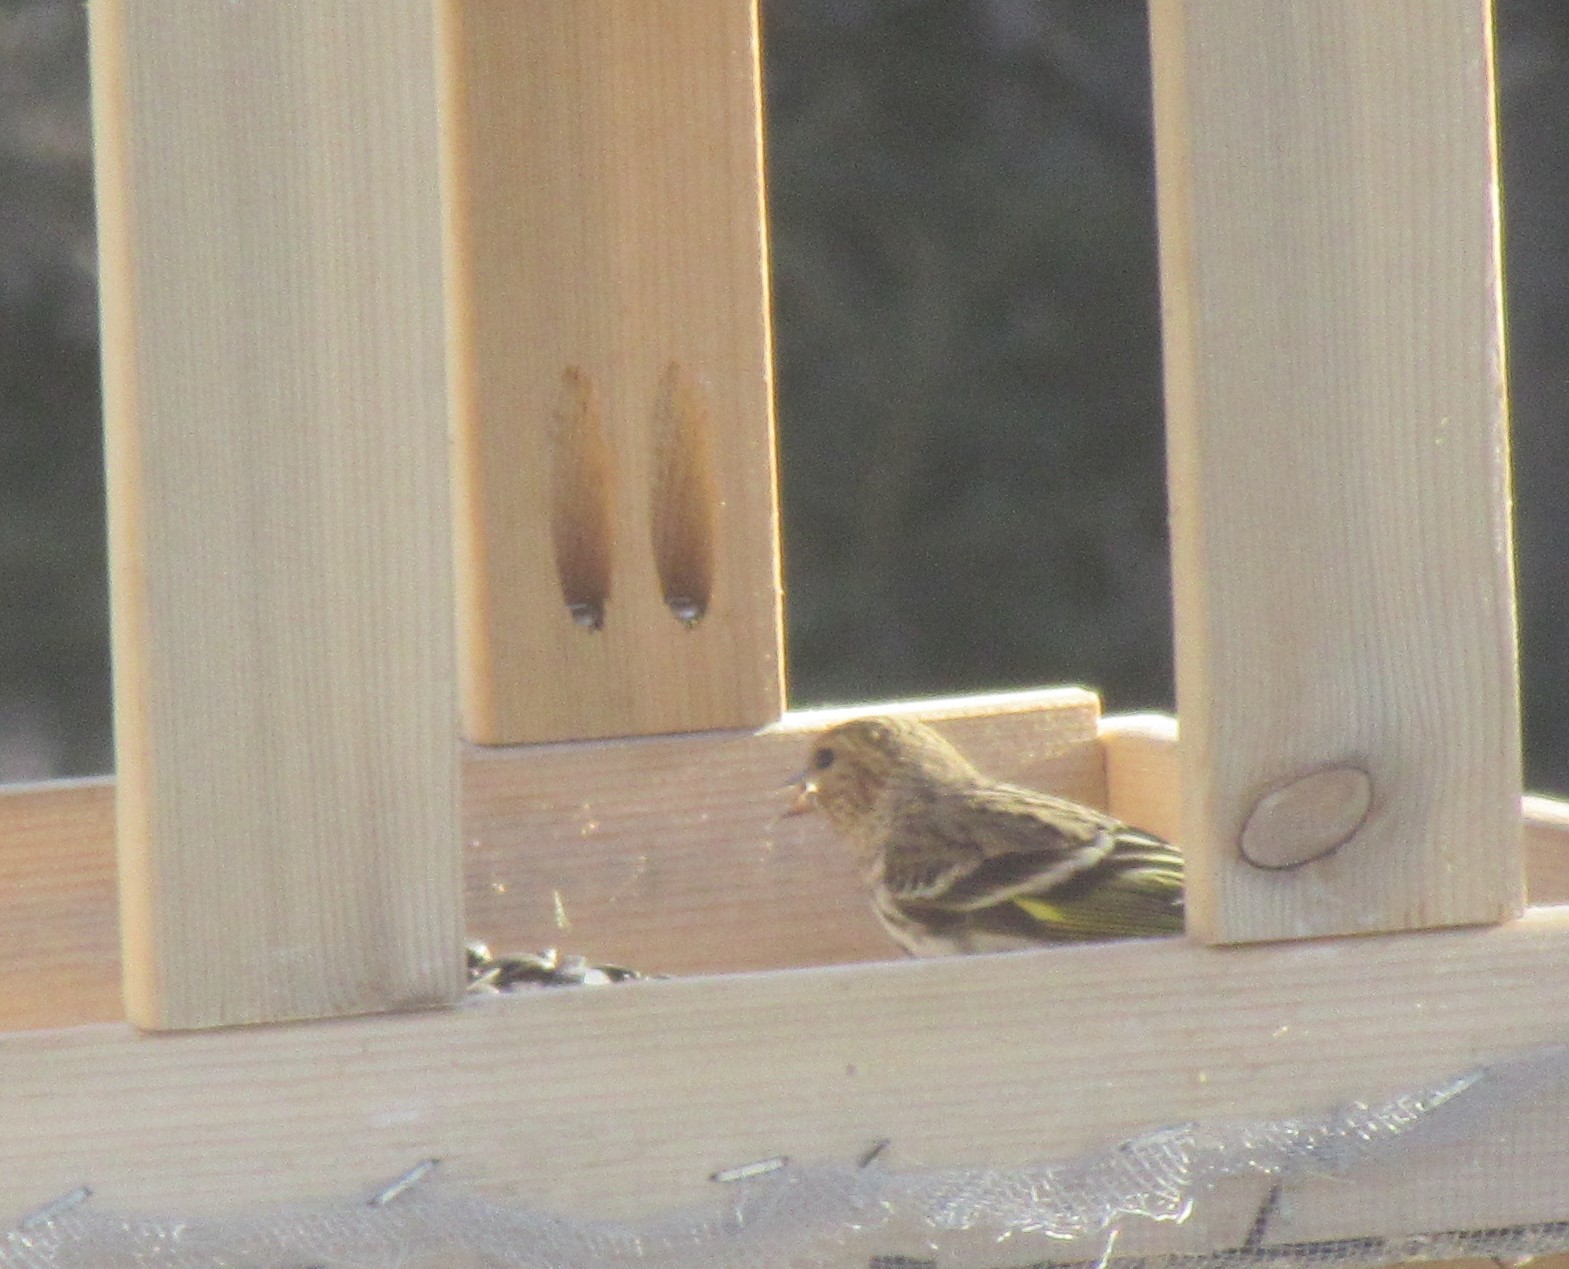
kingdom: Animalia
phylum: Chordata
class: Aves
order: Passeriformes
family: Fringillidae
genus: Spinus
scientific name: Spinus pinus
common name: Pine siskin
